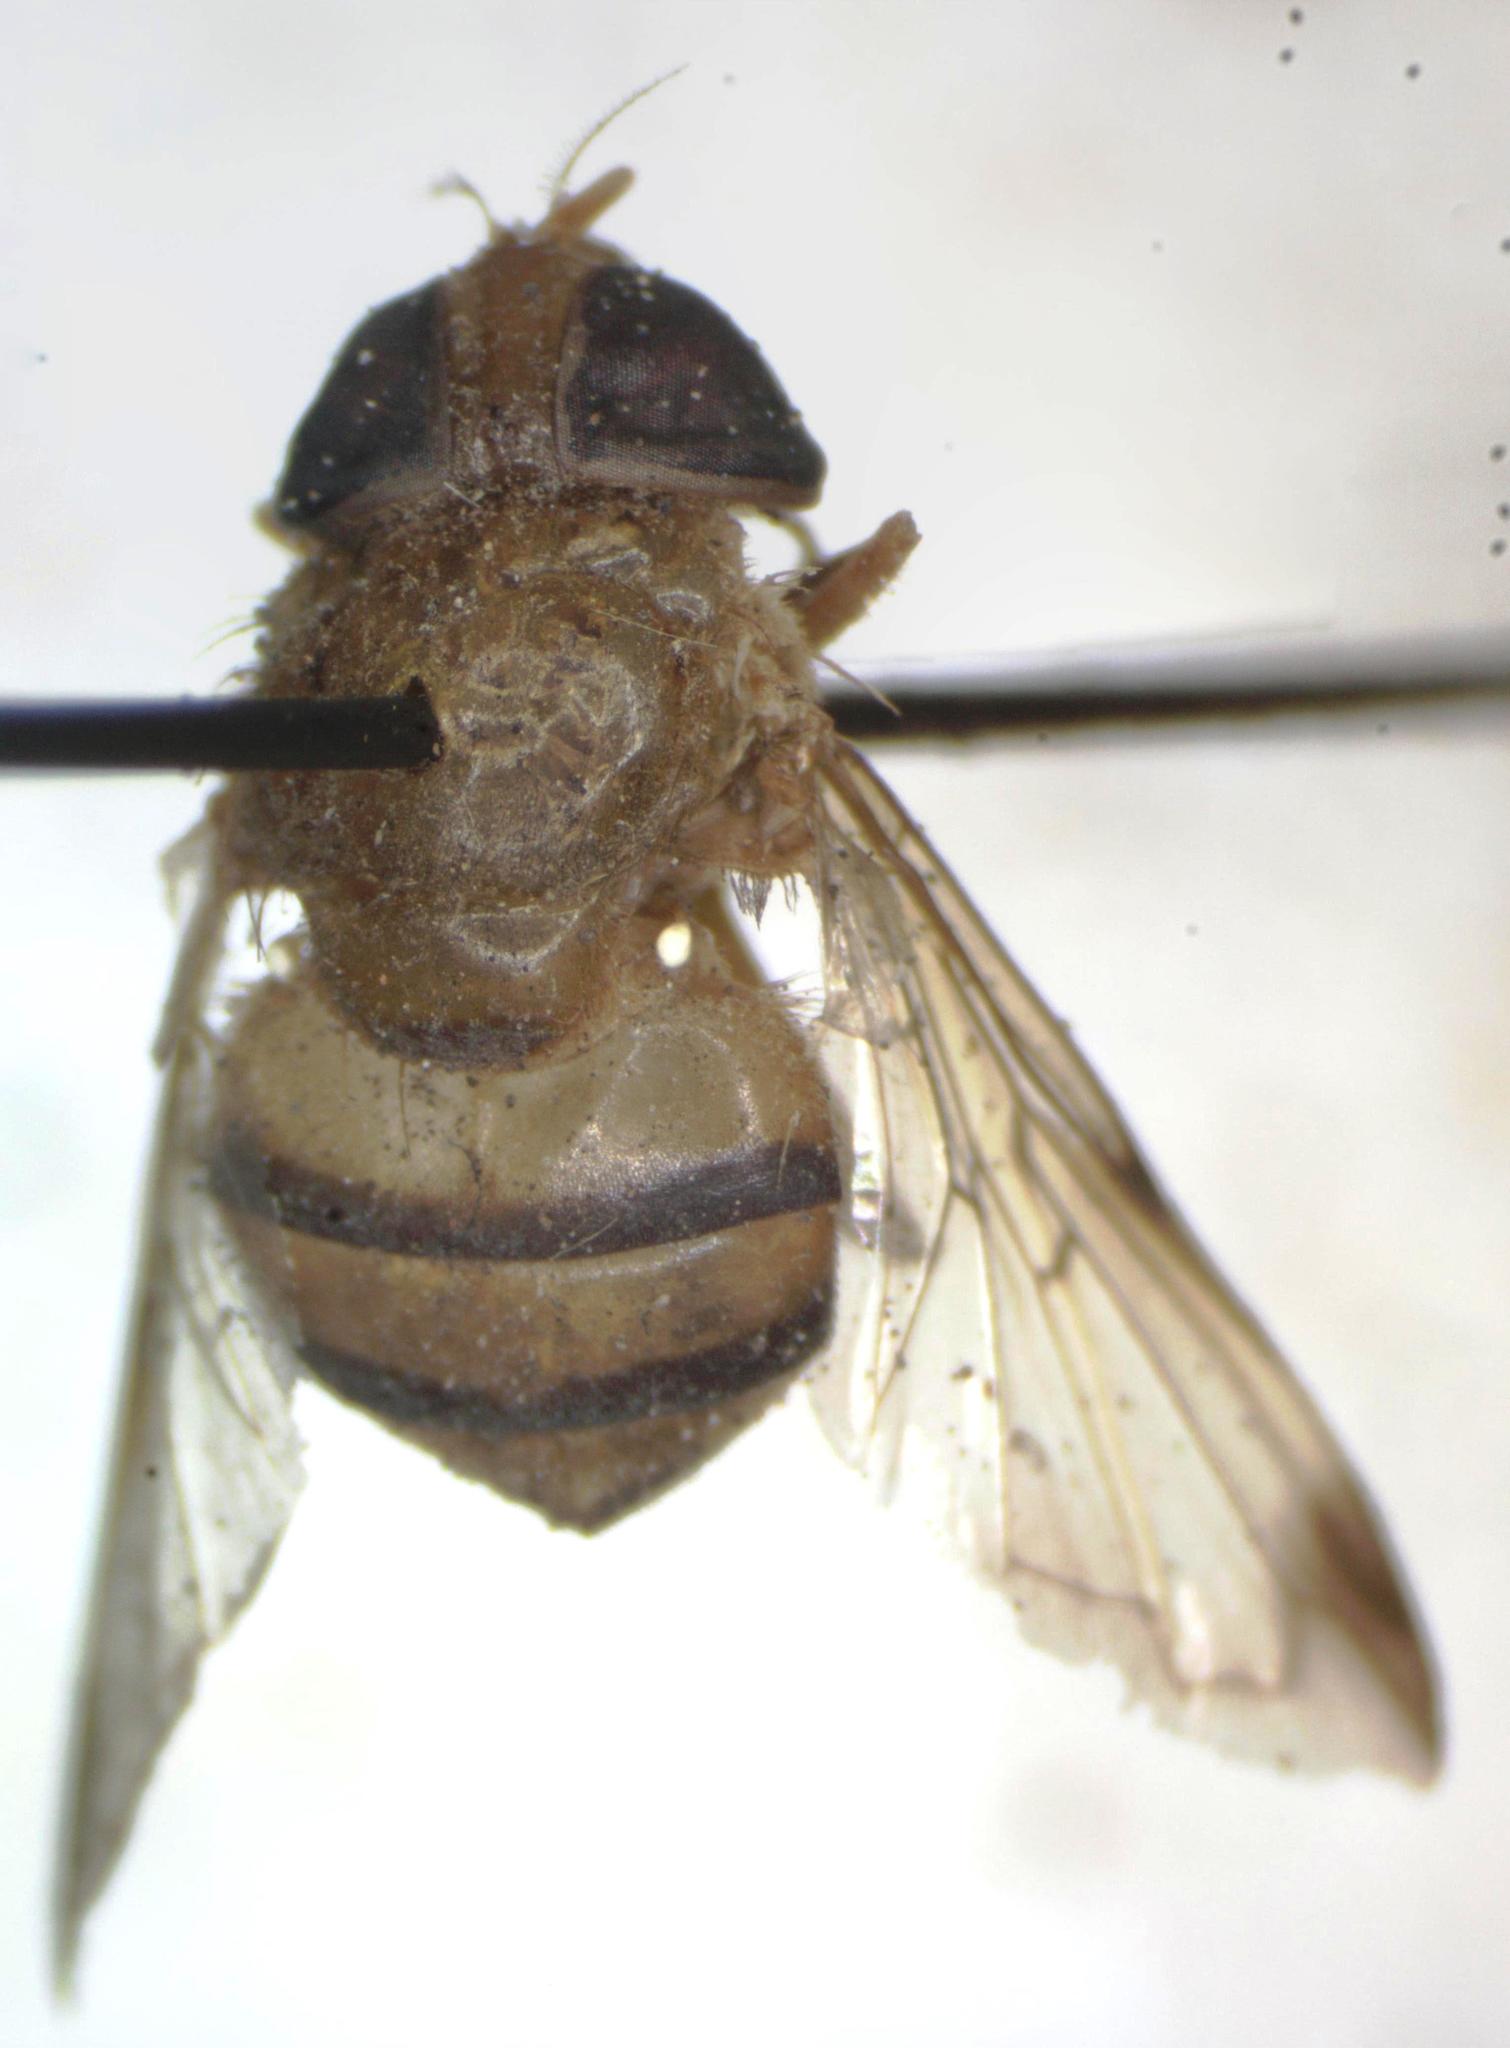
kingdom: Animalia
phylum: Arthropoda
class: Insecta
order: Diptera
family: Syrphidae
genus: Copestylum
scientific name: Copestylum tympanitis
